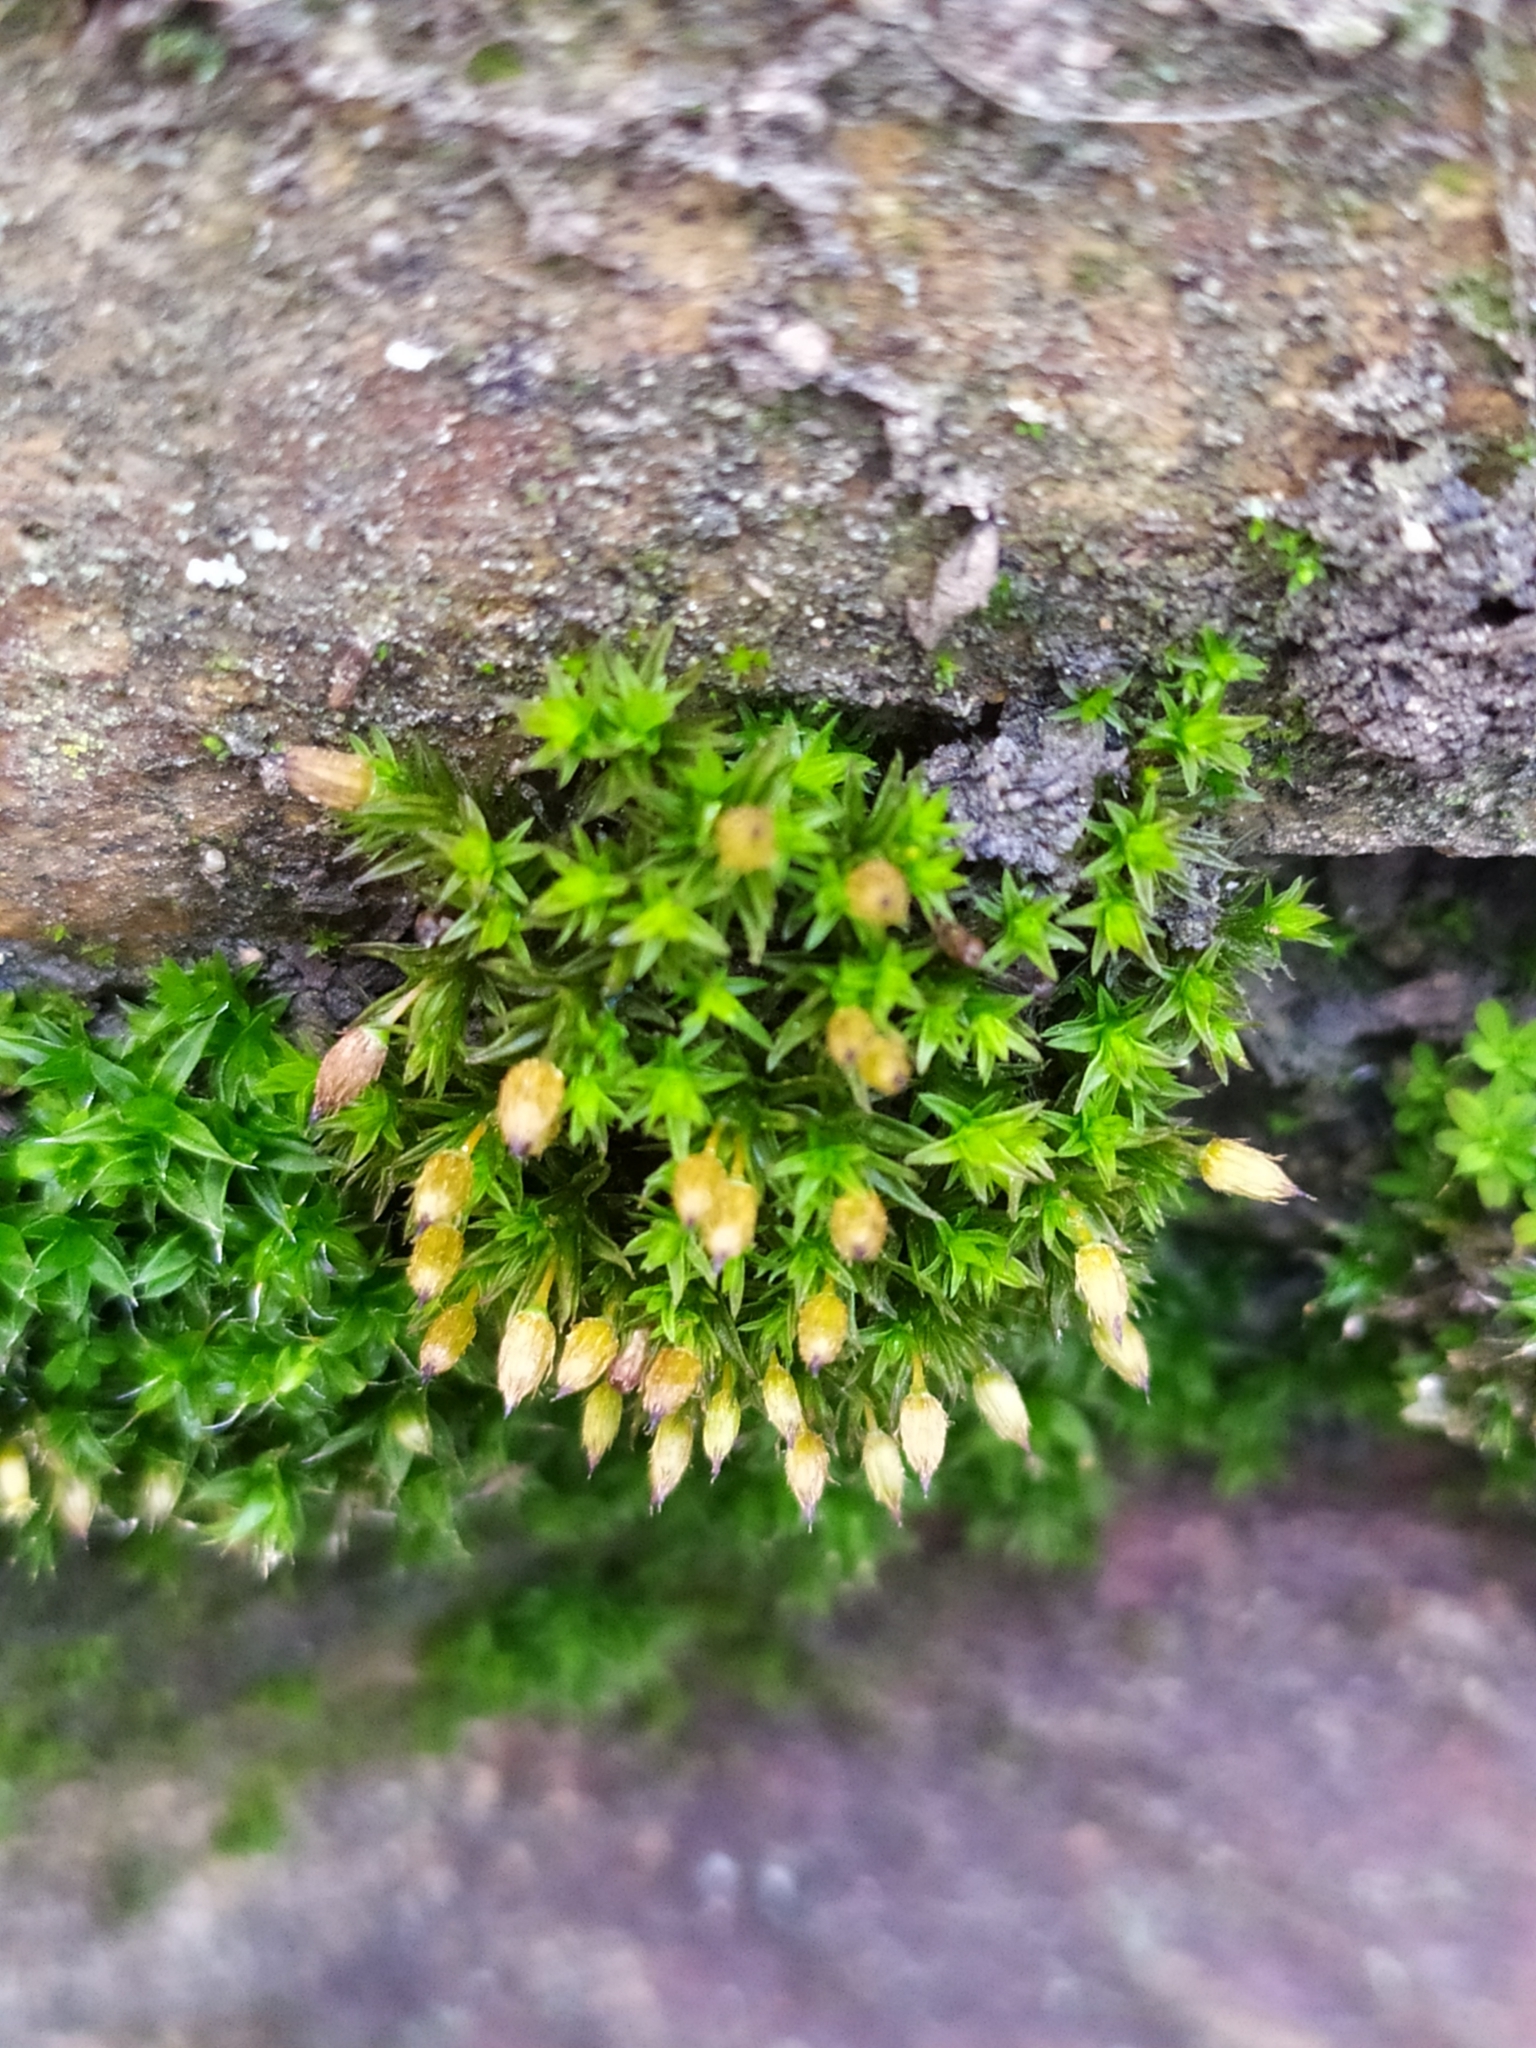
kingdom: Plantae
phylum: Bryophyta
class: Bryopsida
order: Orthotrichales
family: Orthotrichaceae
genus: Orthotrichum
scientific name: Orthotrichum anomalum
